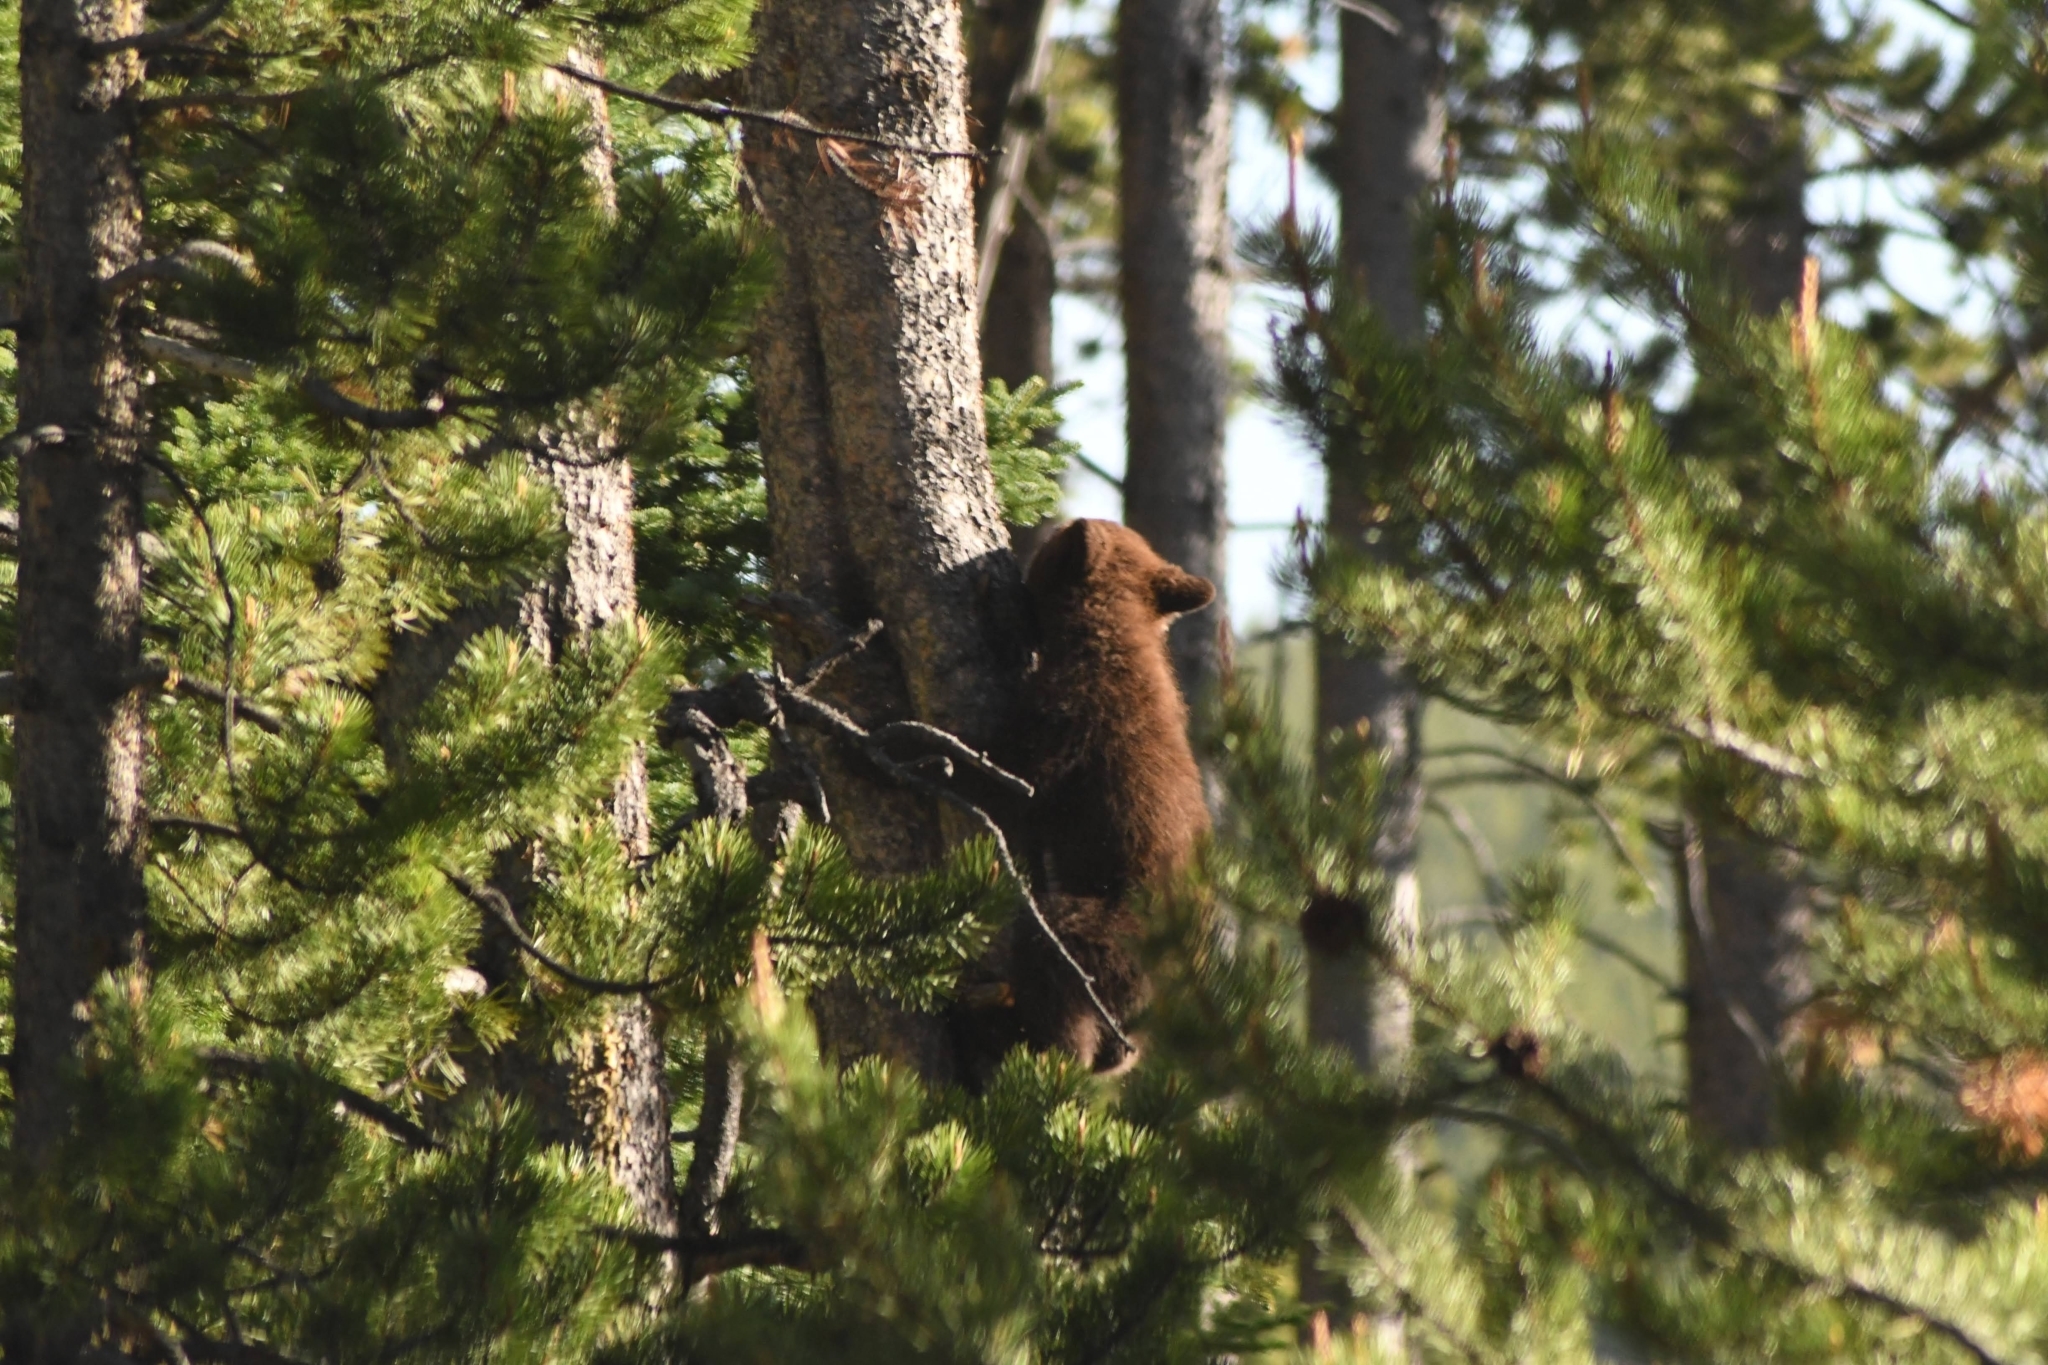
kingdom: Animalia
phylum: Chordata
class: Mammalia
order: Carnivora
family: Ursidae
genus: Ursus
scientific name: Ursus americanus
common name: American black bear
